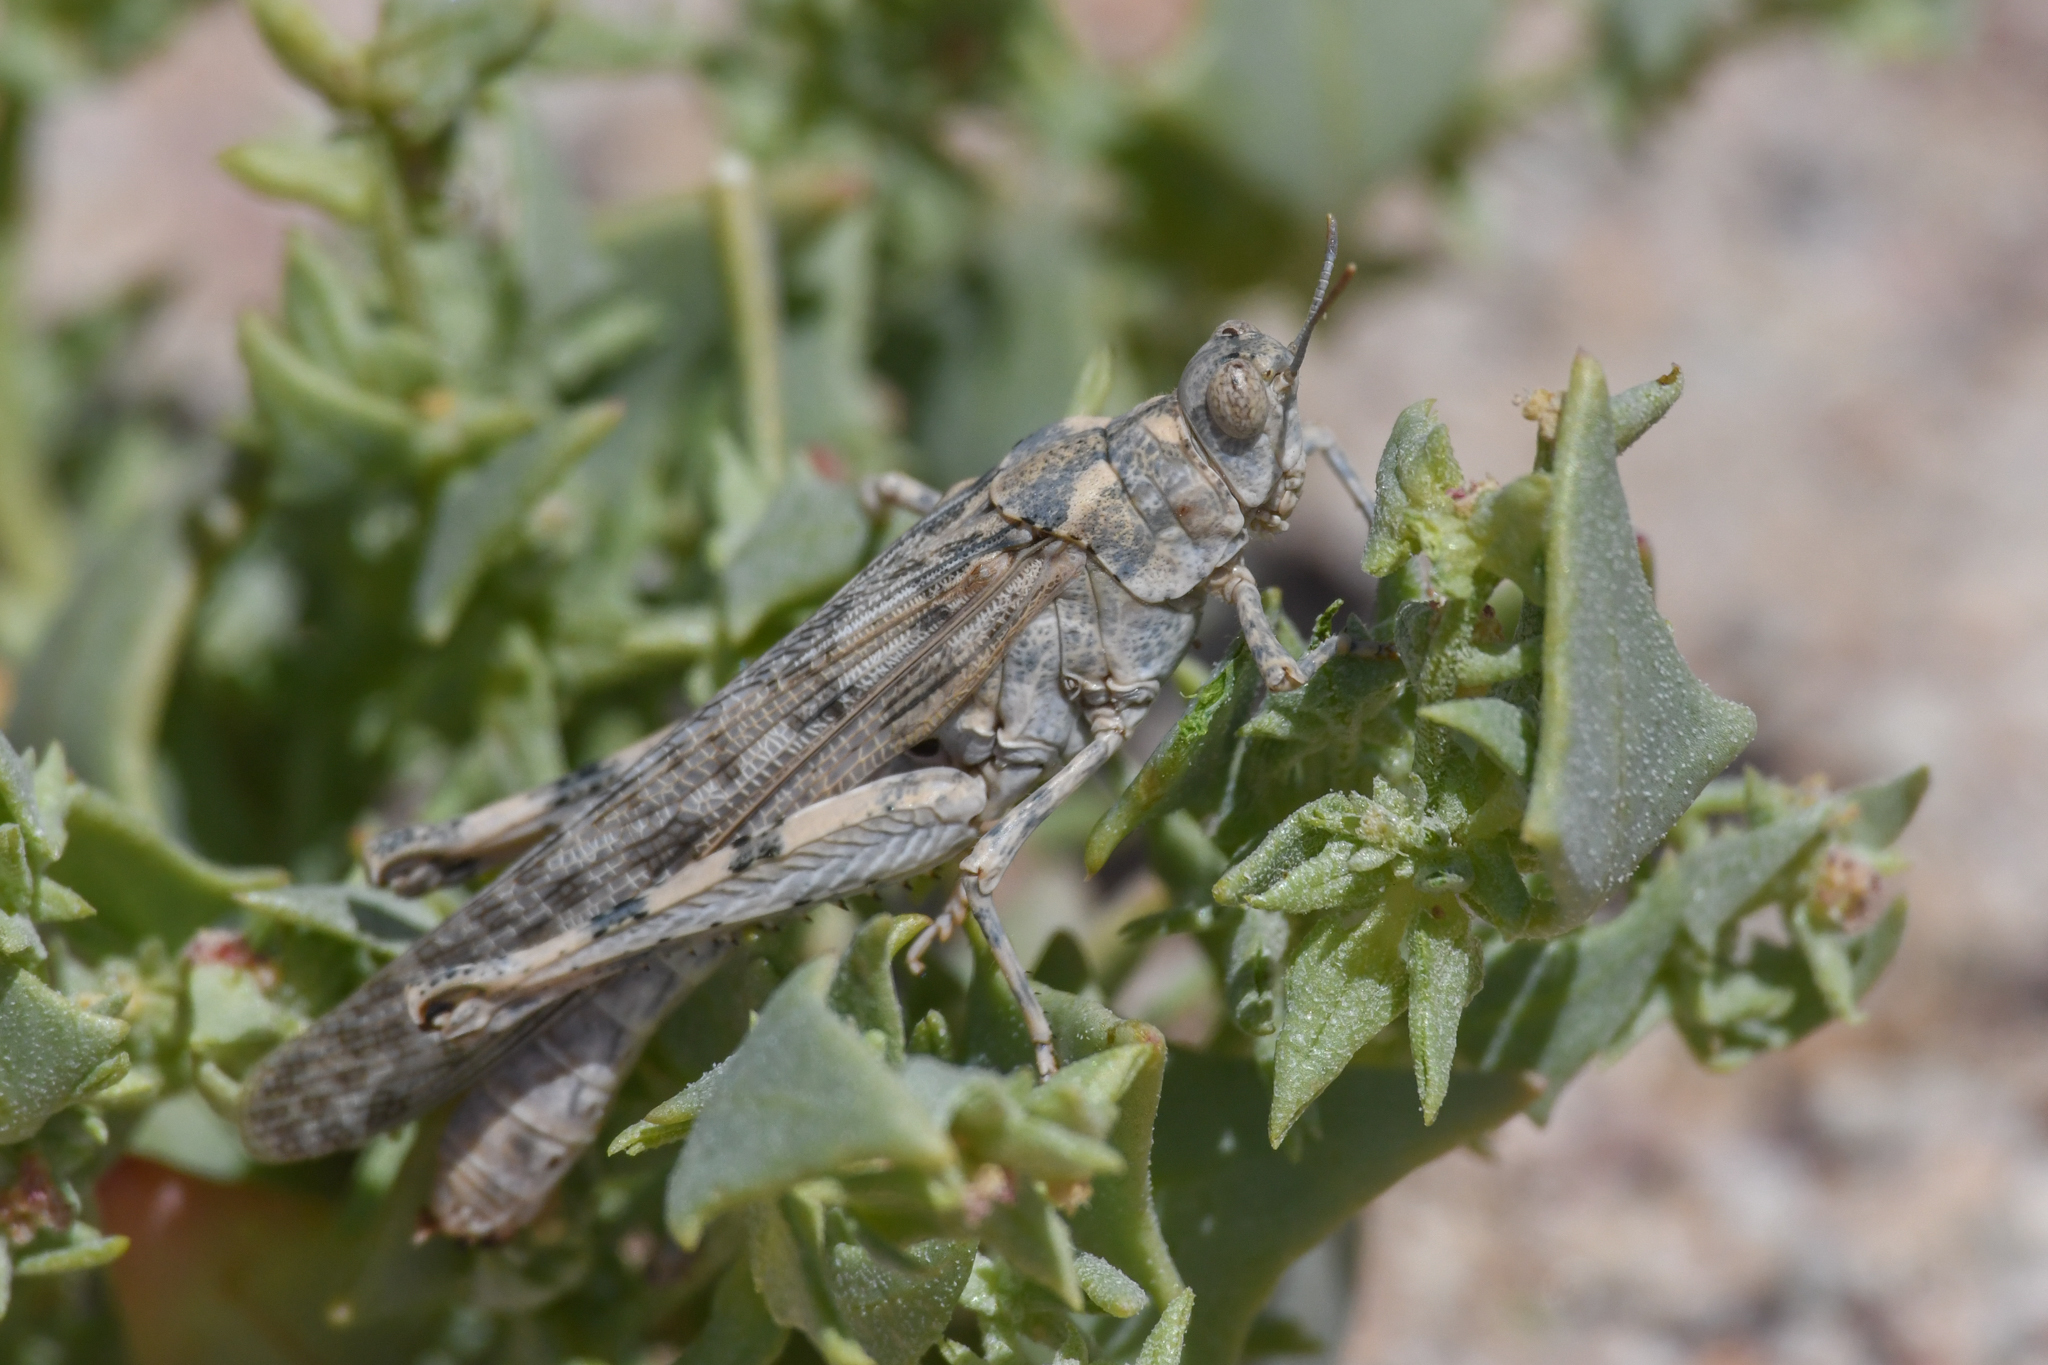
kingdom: Animalia
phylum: Arthropoda
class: Insecta
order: Orthoptera
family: Acrididae
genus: Anconia
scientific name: Anconia integra
